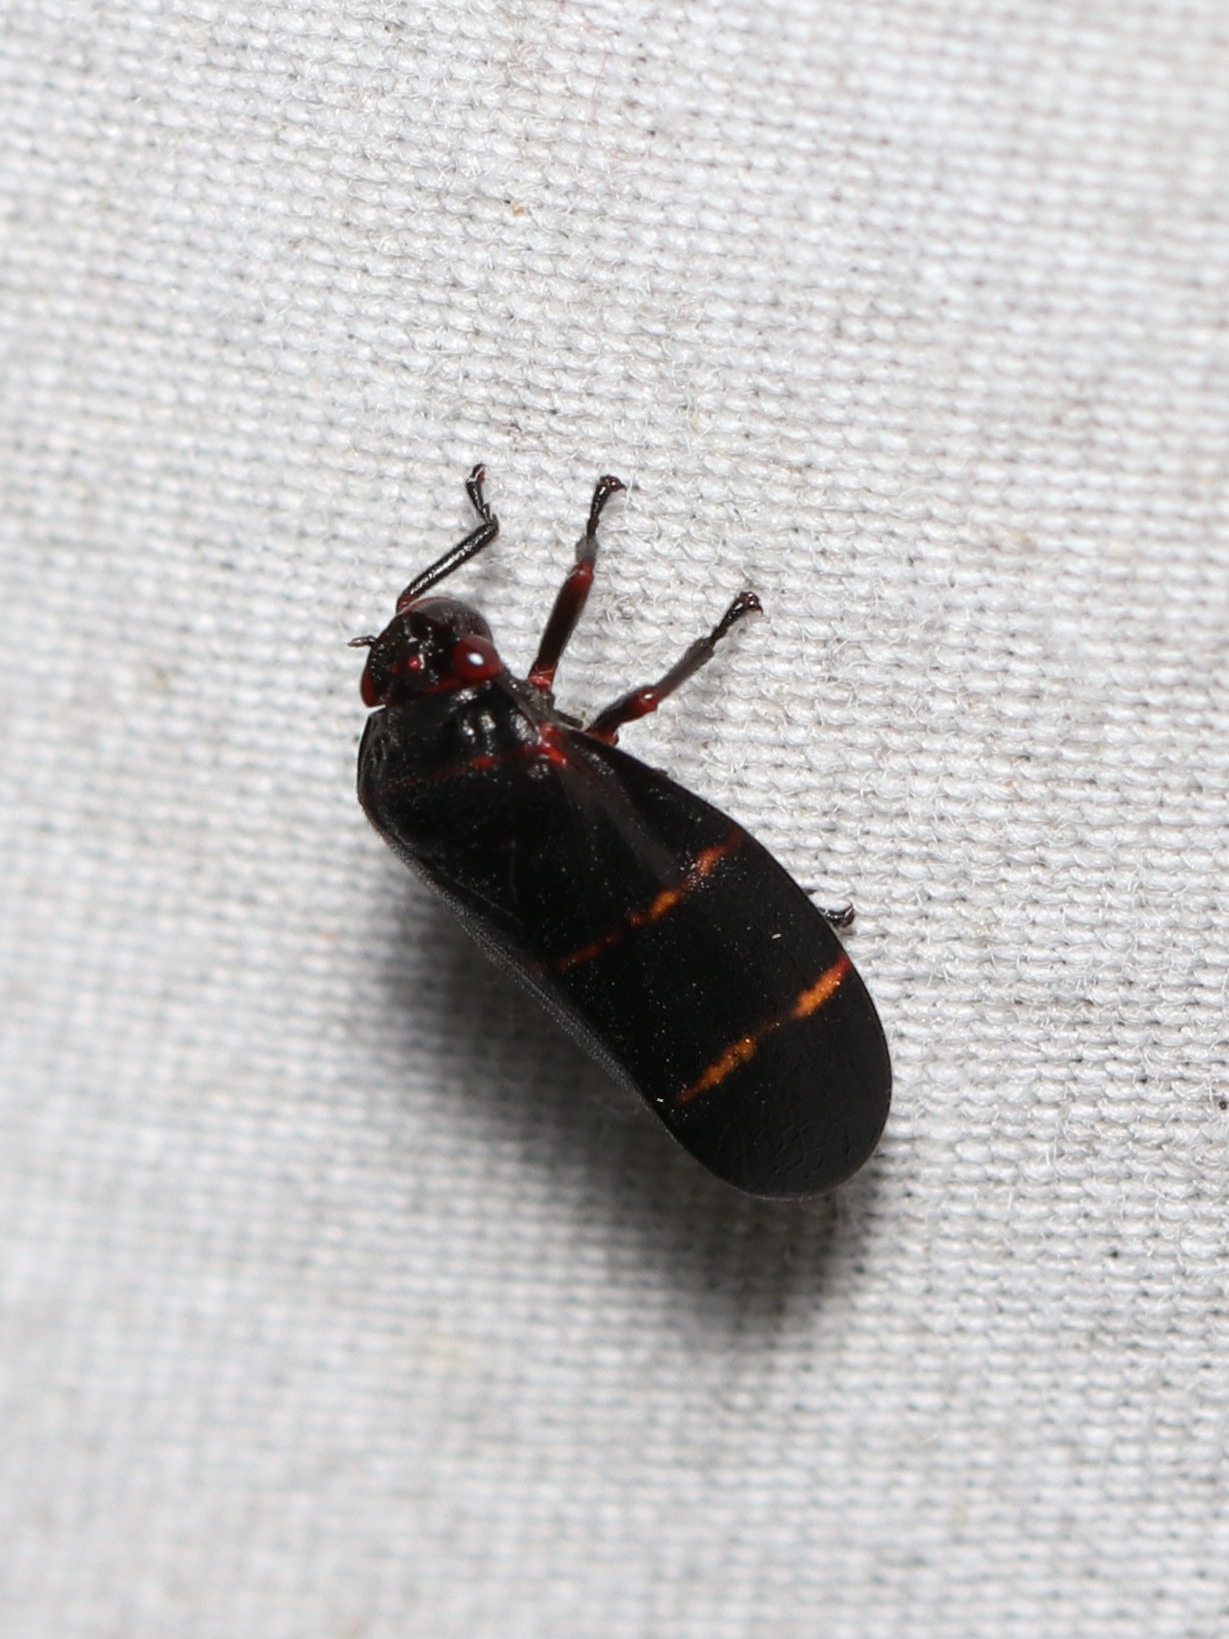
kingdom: Animalia
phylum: Arthropoda
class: Insecta
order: Hemiptera
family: Cercopidae
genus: Prosapia
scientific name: Prosapia bicincta
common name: Twolined spittlebug
